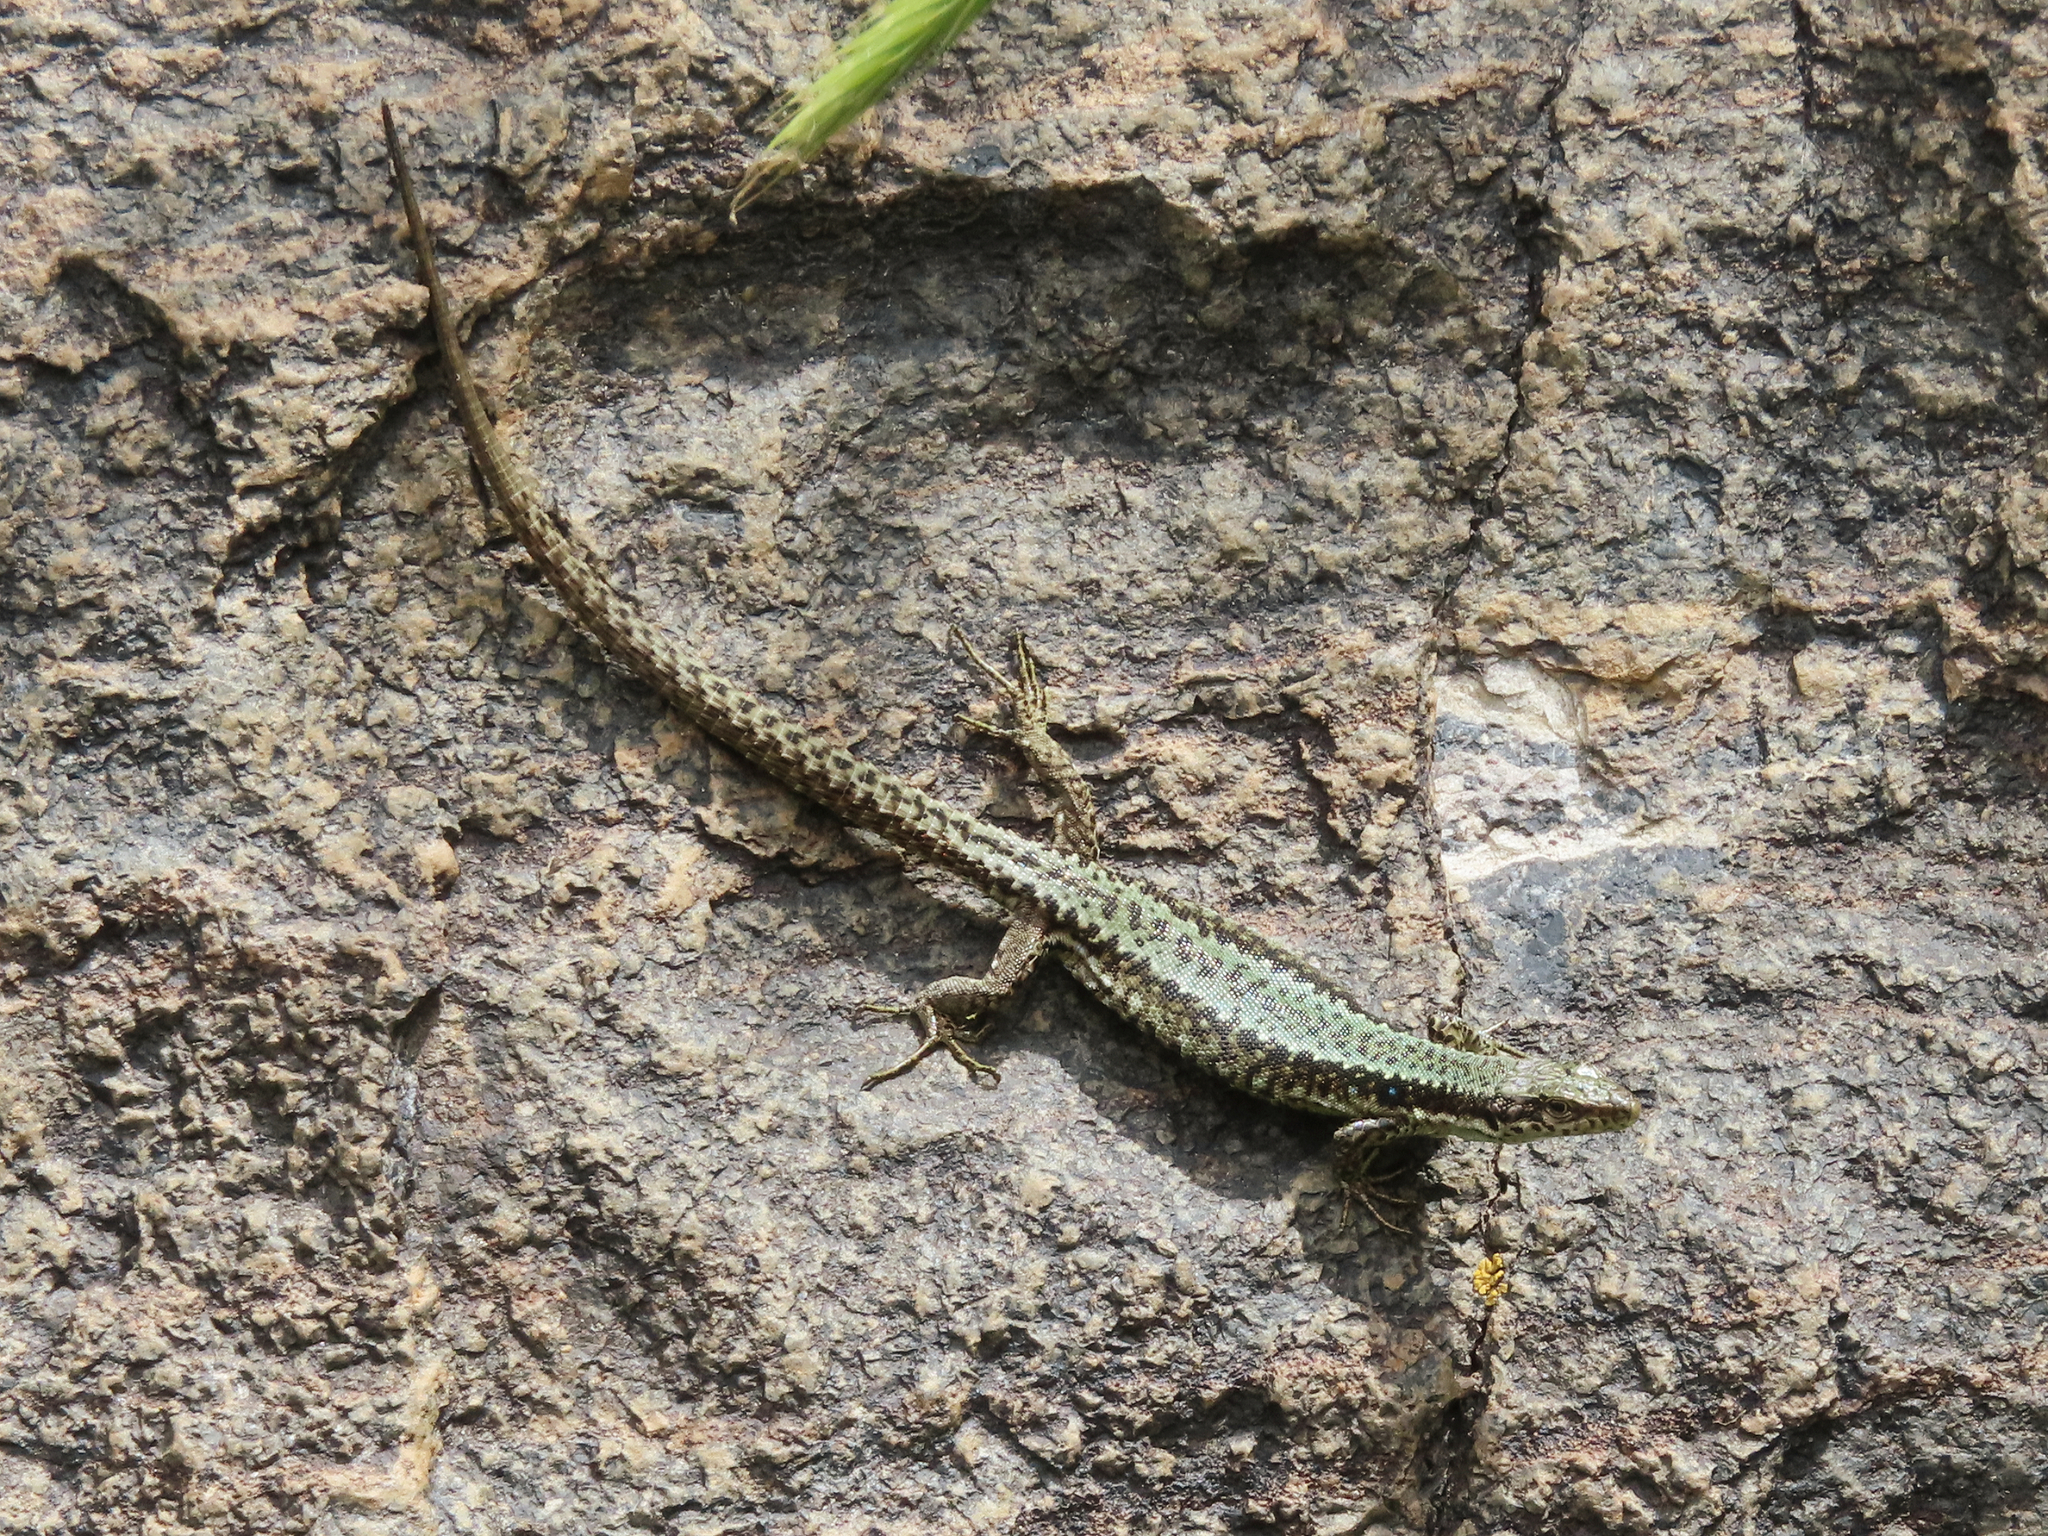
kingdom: Animalia
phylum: Chordata
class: Squamata
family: Lacertidae
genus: Darevskia
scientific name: Darevskia
